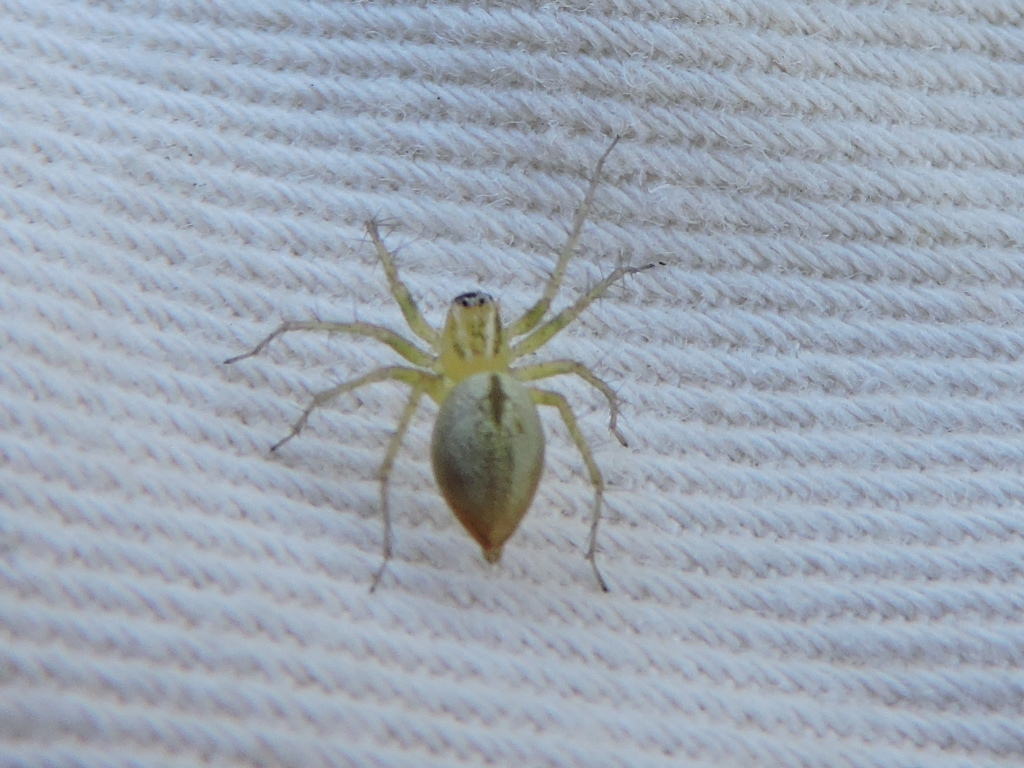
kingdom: Animalia
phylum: Arthropoda
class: Arachnida
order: Araneae
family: Oxyopidae
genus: Oxyopes
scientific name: Oxyopes salticus
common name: Lynx spiders
